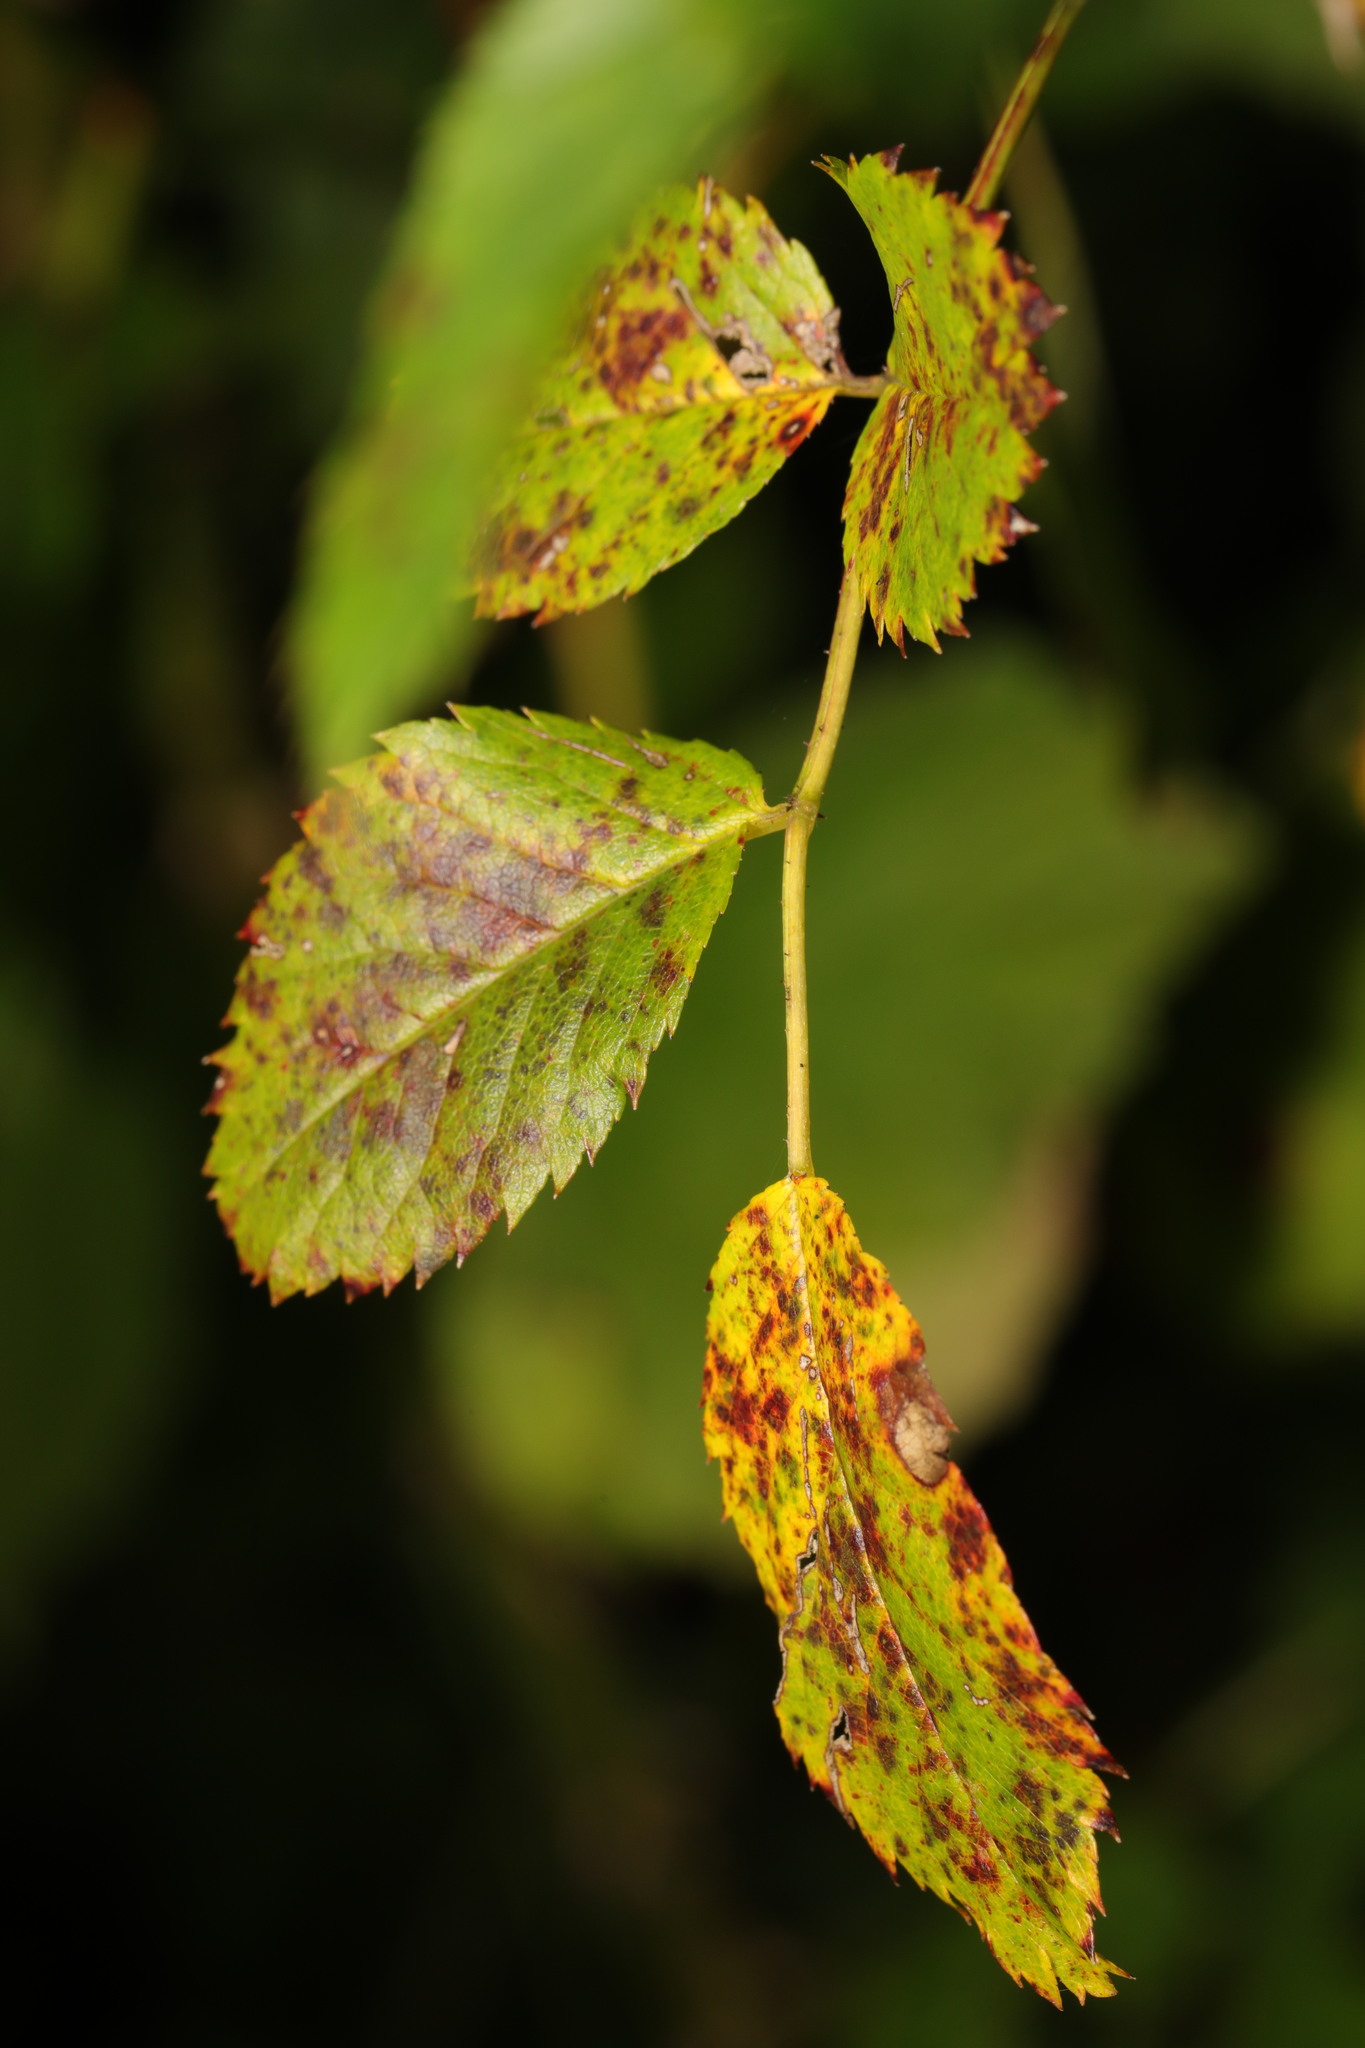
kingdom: Fungi
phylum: Ascomycota
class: Leotiomycetes
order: Helotiales
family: Drepanopezizaceae
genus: Diplocarpon
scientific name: Diplocarpon rosae
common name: Rose black-spot
